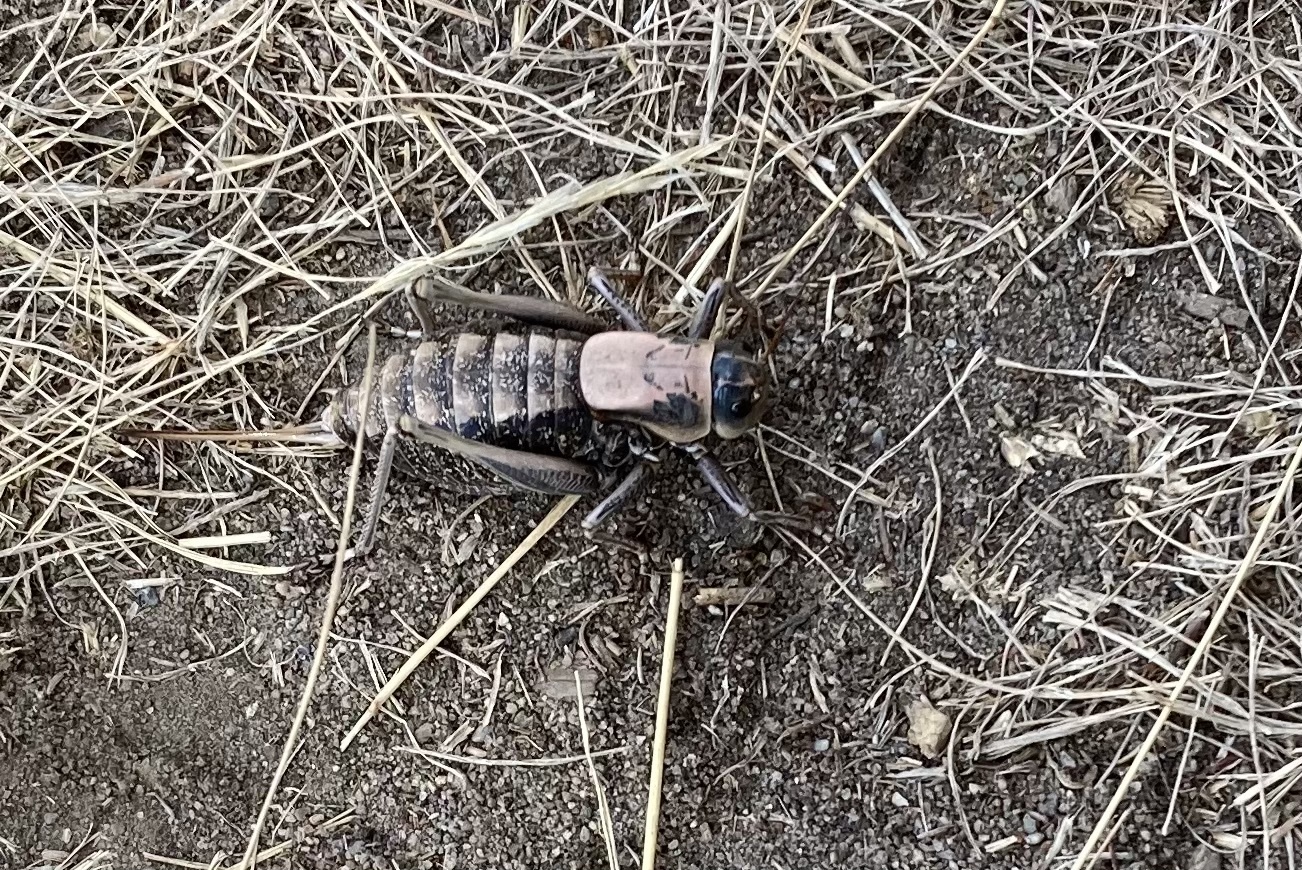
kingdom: Animalia
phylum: Arthropoda
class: Insecta
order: Orthoptera
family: Tettigoniidae
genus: Anabrus
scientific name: Anabrus simplex
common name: Mormon cricket
